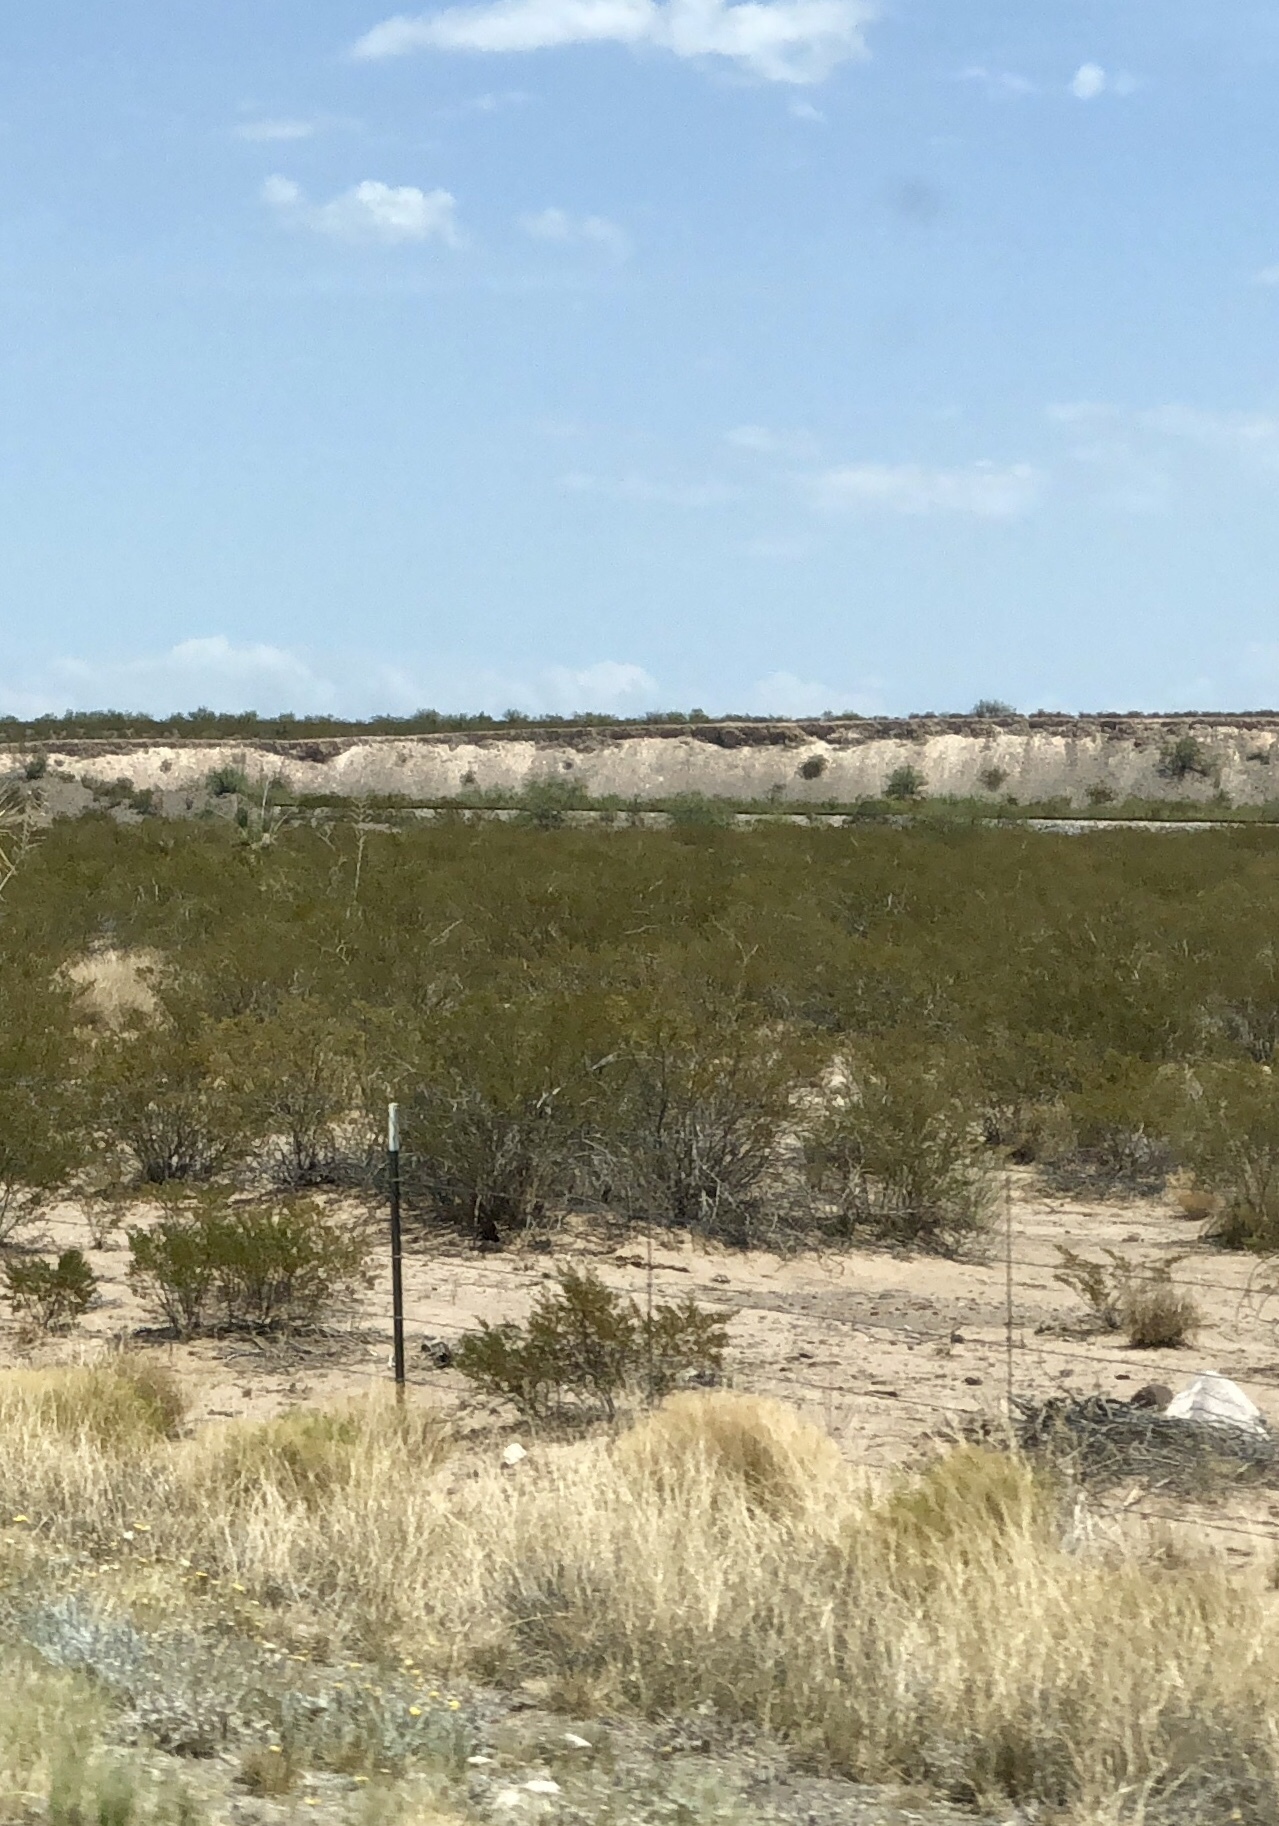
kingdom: Plantae
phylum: Tracheophyta
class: Magnoliopsida
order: Zygophyllales
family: Zygophyllaceae
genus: Larrea
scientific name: Larrea tridentata
